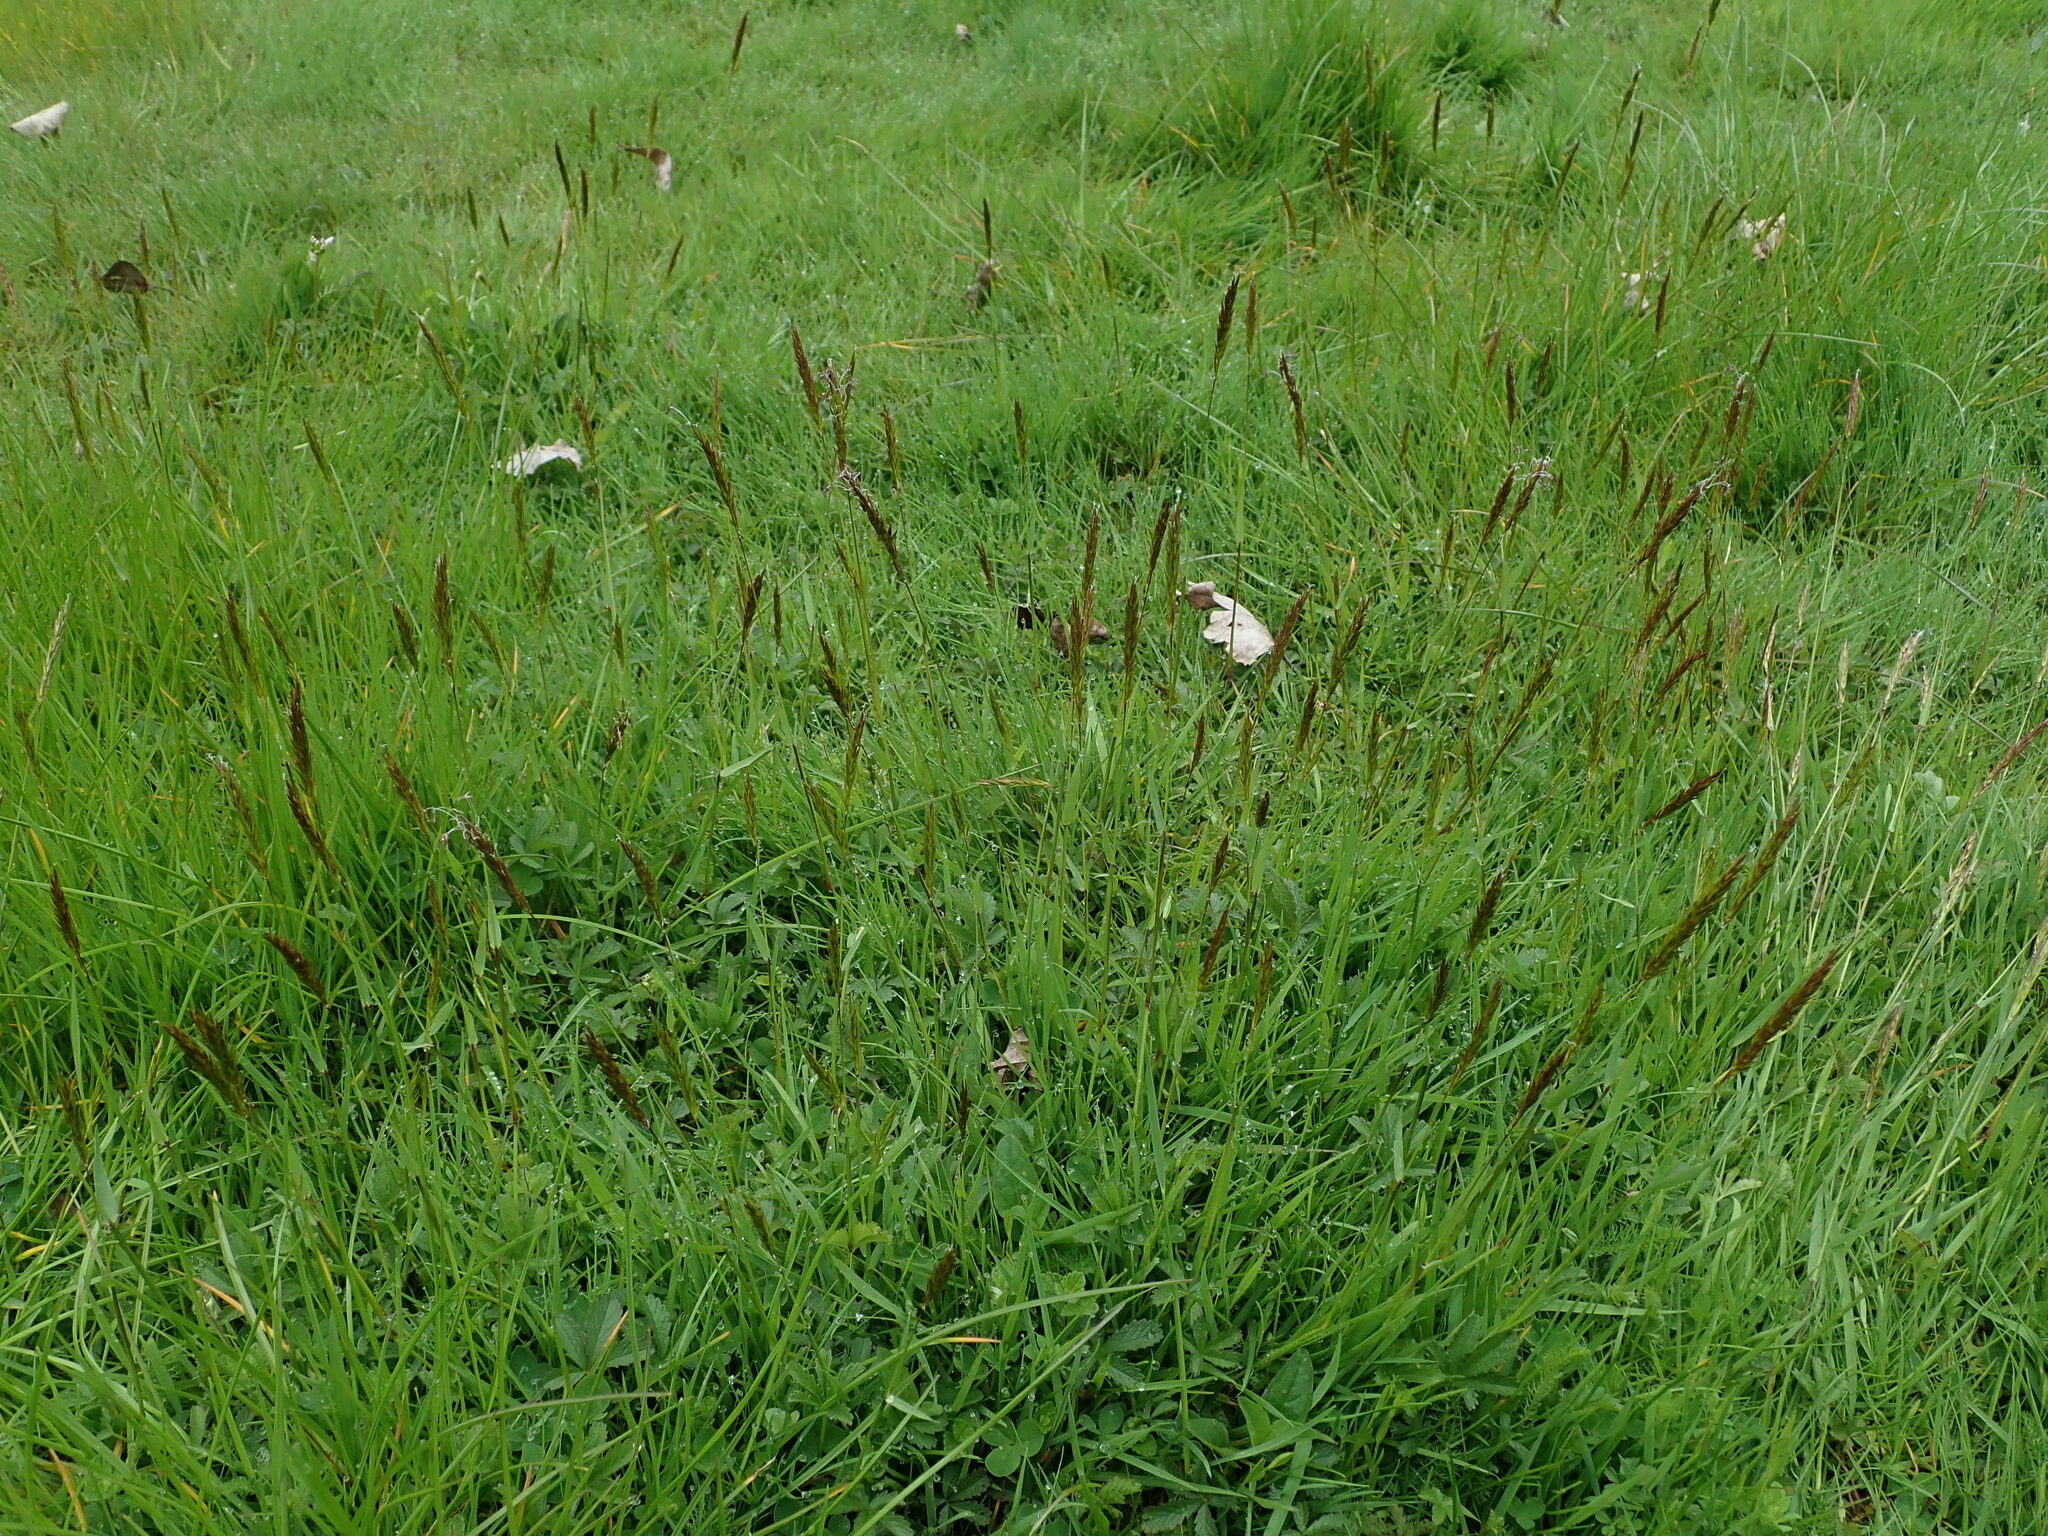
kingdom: Plantae
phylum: Tracheophyta
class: Liliopsida
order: Poales
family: Poaceae
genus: Anthoxanthum
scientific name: Anthoxanthum odoratum
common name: Sweet vernalgrass
